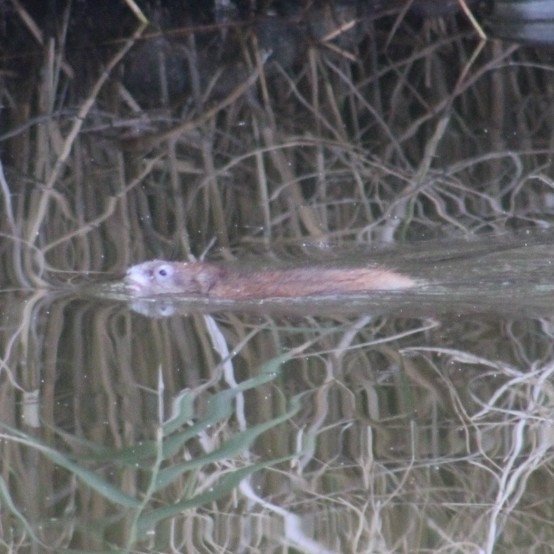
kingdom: Animalia
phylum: Chordata
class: Mammalia
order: Rodentia
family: Cricetidae
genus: Ondatra
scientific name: Ondatra zibethicus
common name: Muskrat
